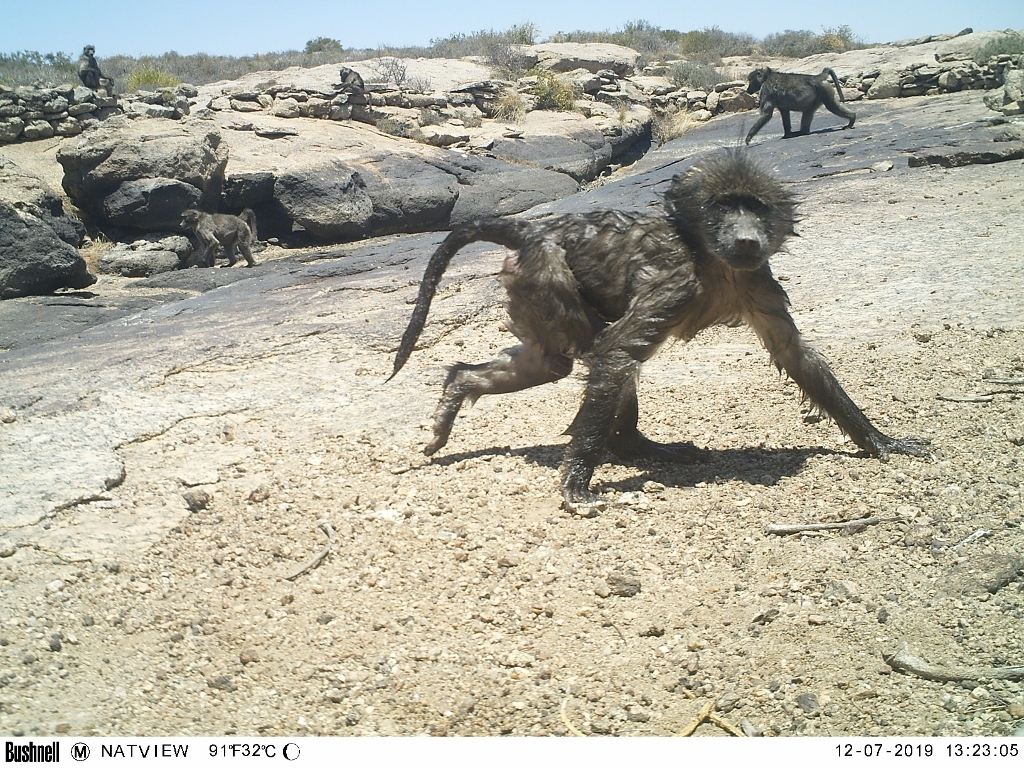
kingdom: Animalia
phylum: Chordata
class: Mammalia
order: Primates
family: Cercopithecidae
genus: Papio
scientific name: Papio ursinus
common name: Chacma baboon
